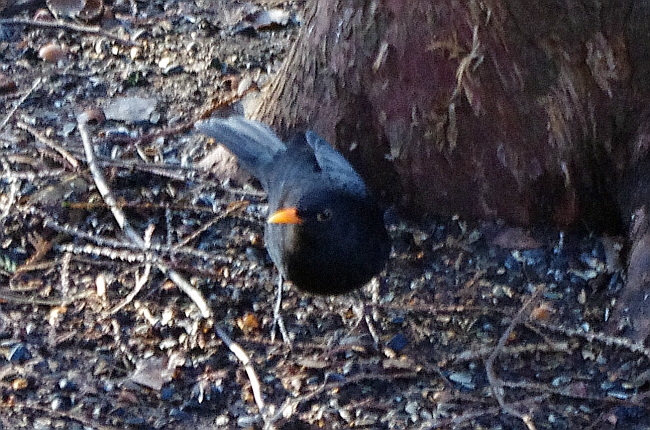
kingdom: Animalia
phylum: Chordata
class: Aves
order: Passeriformes
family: Turdidae
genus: Turdus
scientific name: Turdus merula
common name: Common blackbird
